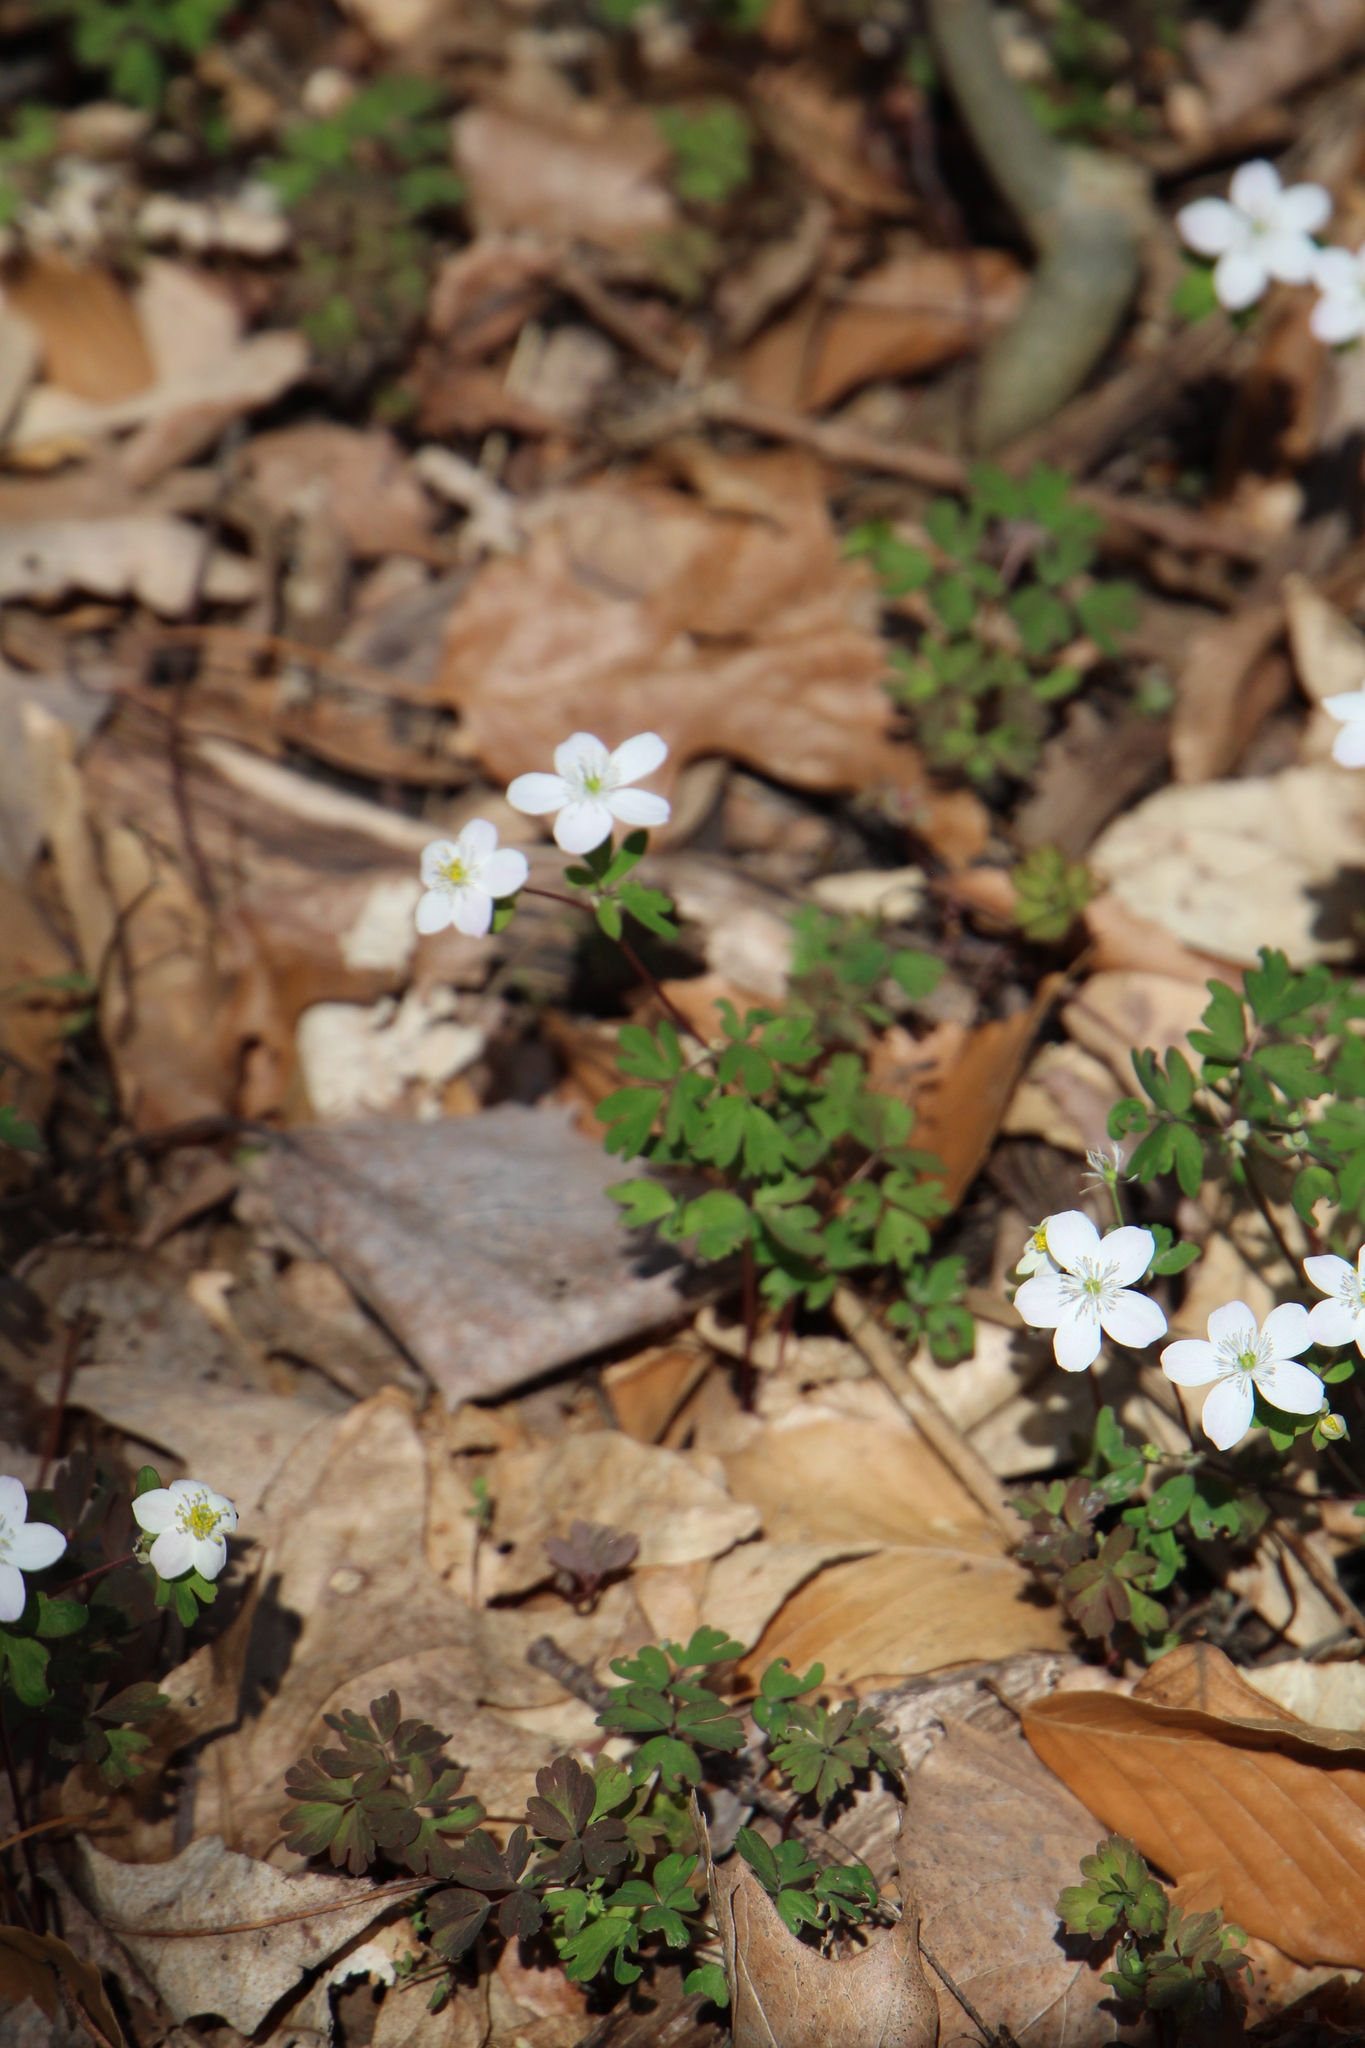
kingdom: Plantae
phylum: Tracheophyta
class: Magnoliopsida
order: Ranunculales
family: Ranunculaceae
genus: Enemion
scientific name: Enemion biternatum
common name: Eastern false rue-anemone
